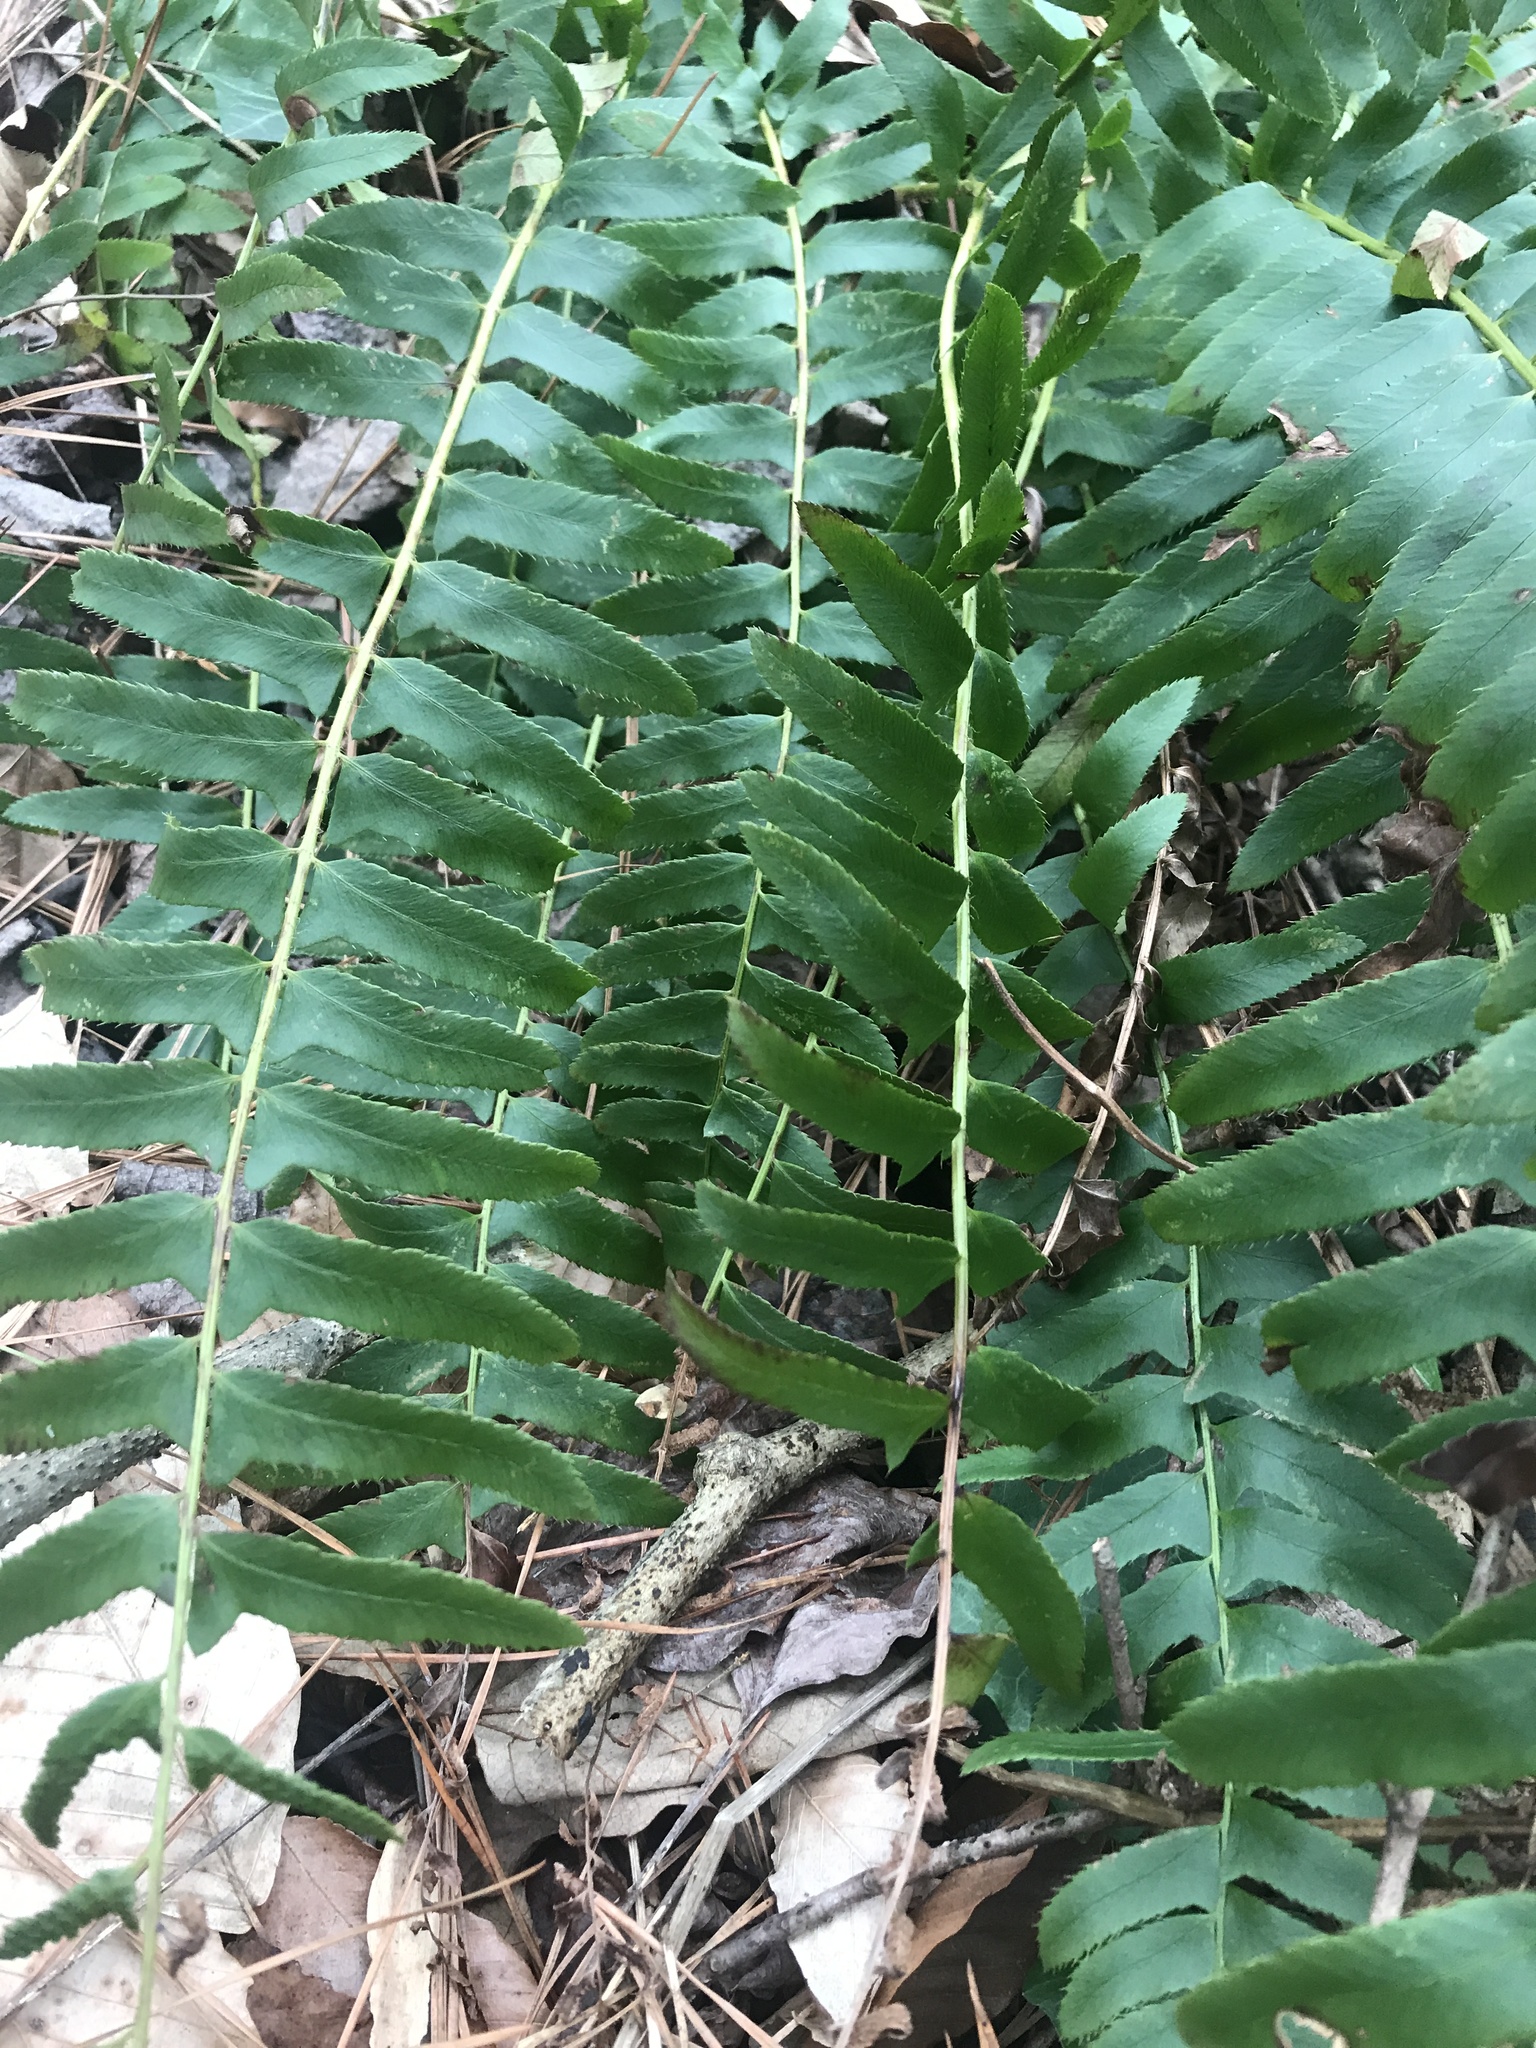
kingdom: Plantae
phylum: Tracheophyta
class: Polypodiopsida
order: Polypodiales
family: Dryopteridaceae
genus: Polystichum
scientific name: Polystichum acrostichoides
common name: Christmas fern
